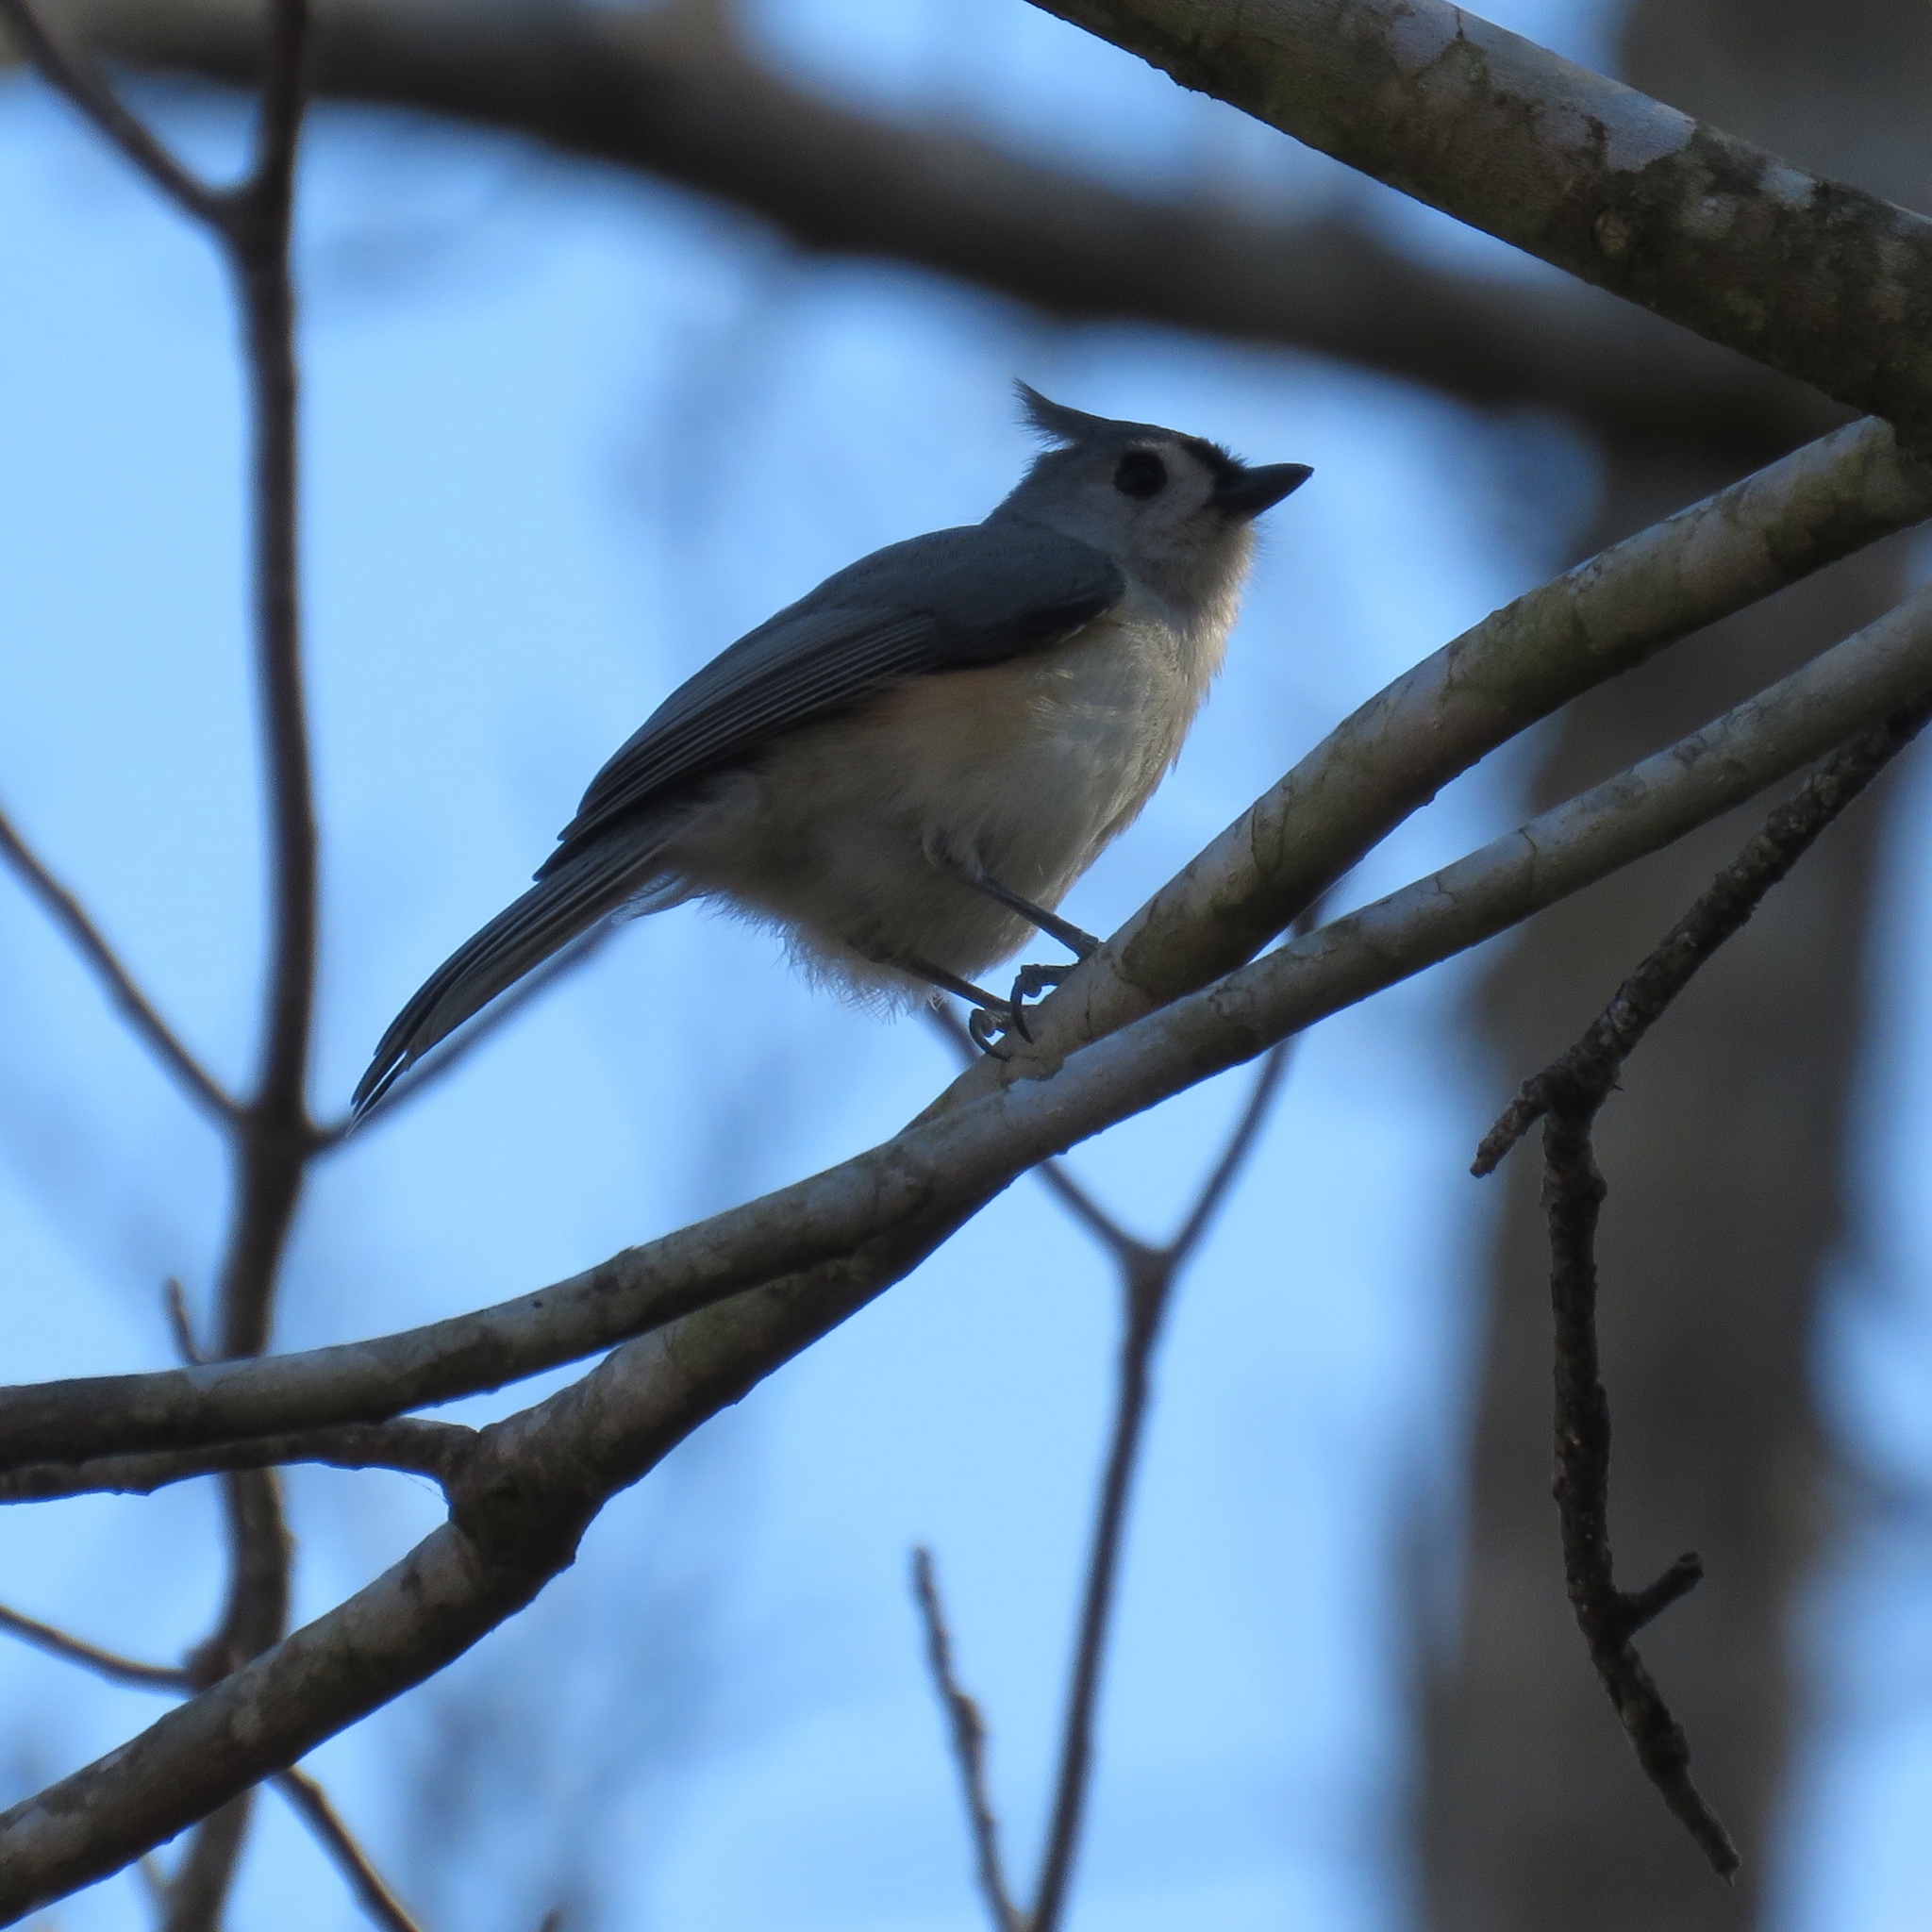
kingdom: Animalia
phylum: Chordata
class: Aves
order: Passeriformes
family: Paridae
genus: Baeolophus
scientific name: Baeolophus bicolor
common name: Tufted titmouse
